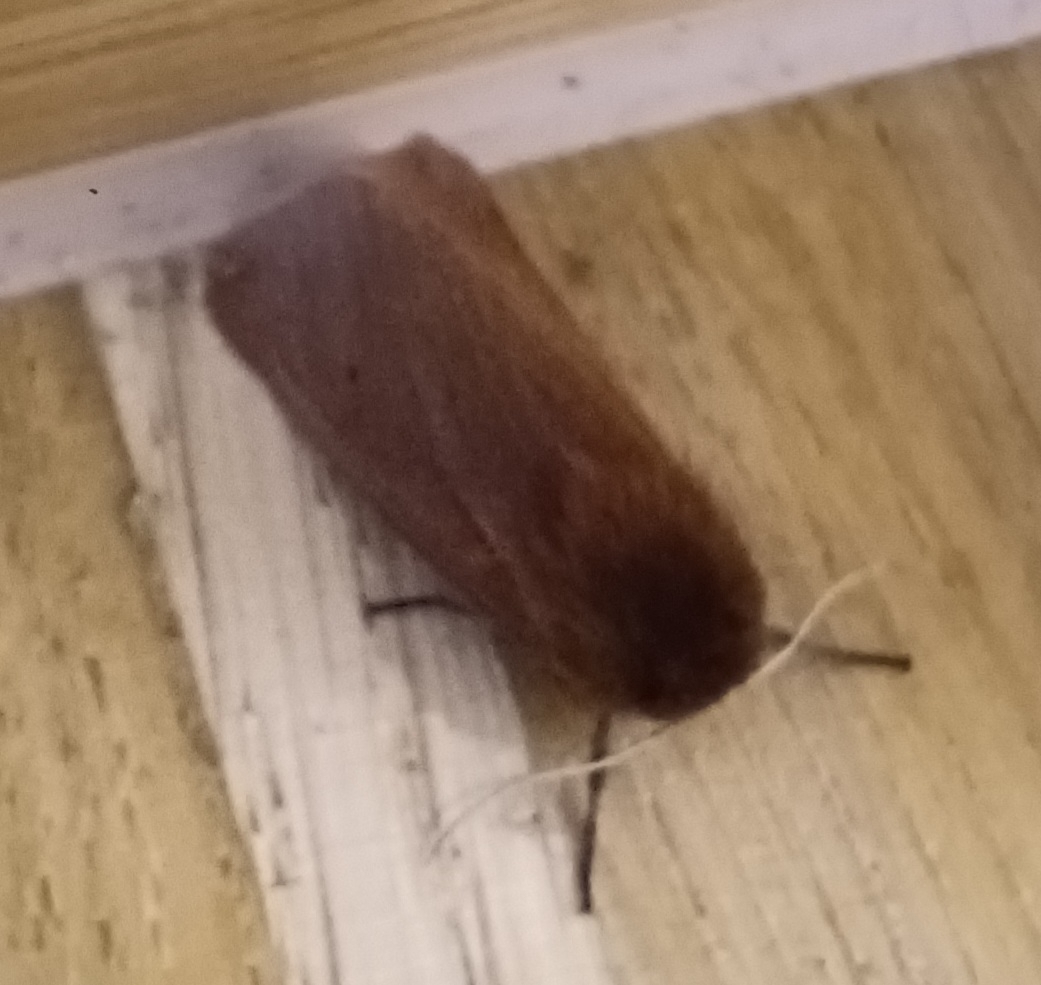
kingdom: Animalia
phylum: Arthropoda
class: Insecta
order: Lepidoptera
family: Erebidae
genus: Phragmatobia
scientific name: Phragmatobia fuliginosa
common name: Ruby tiger
